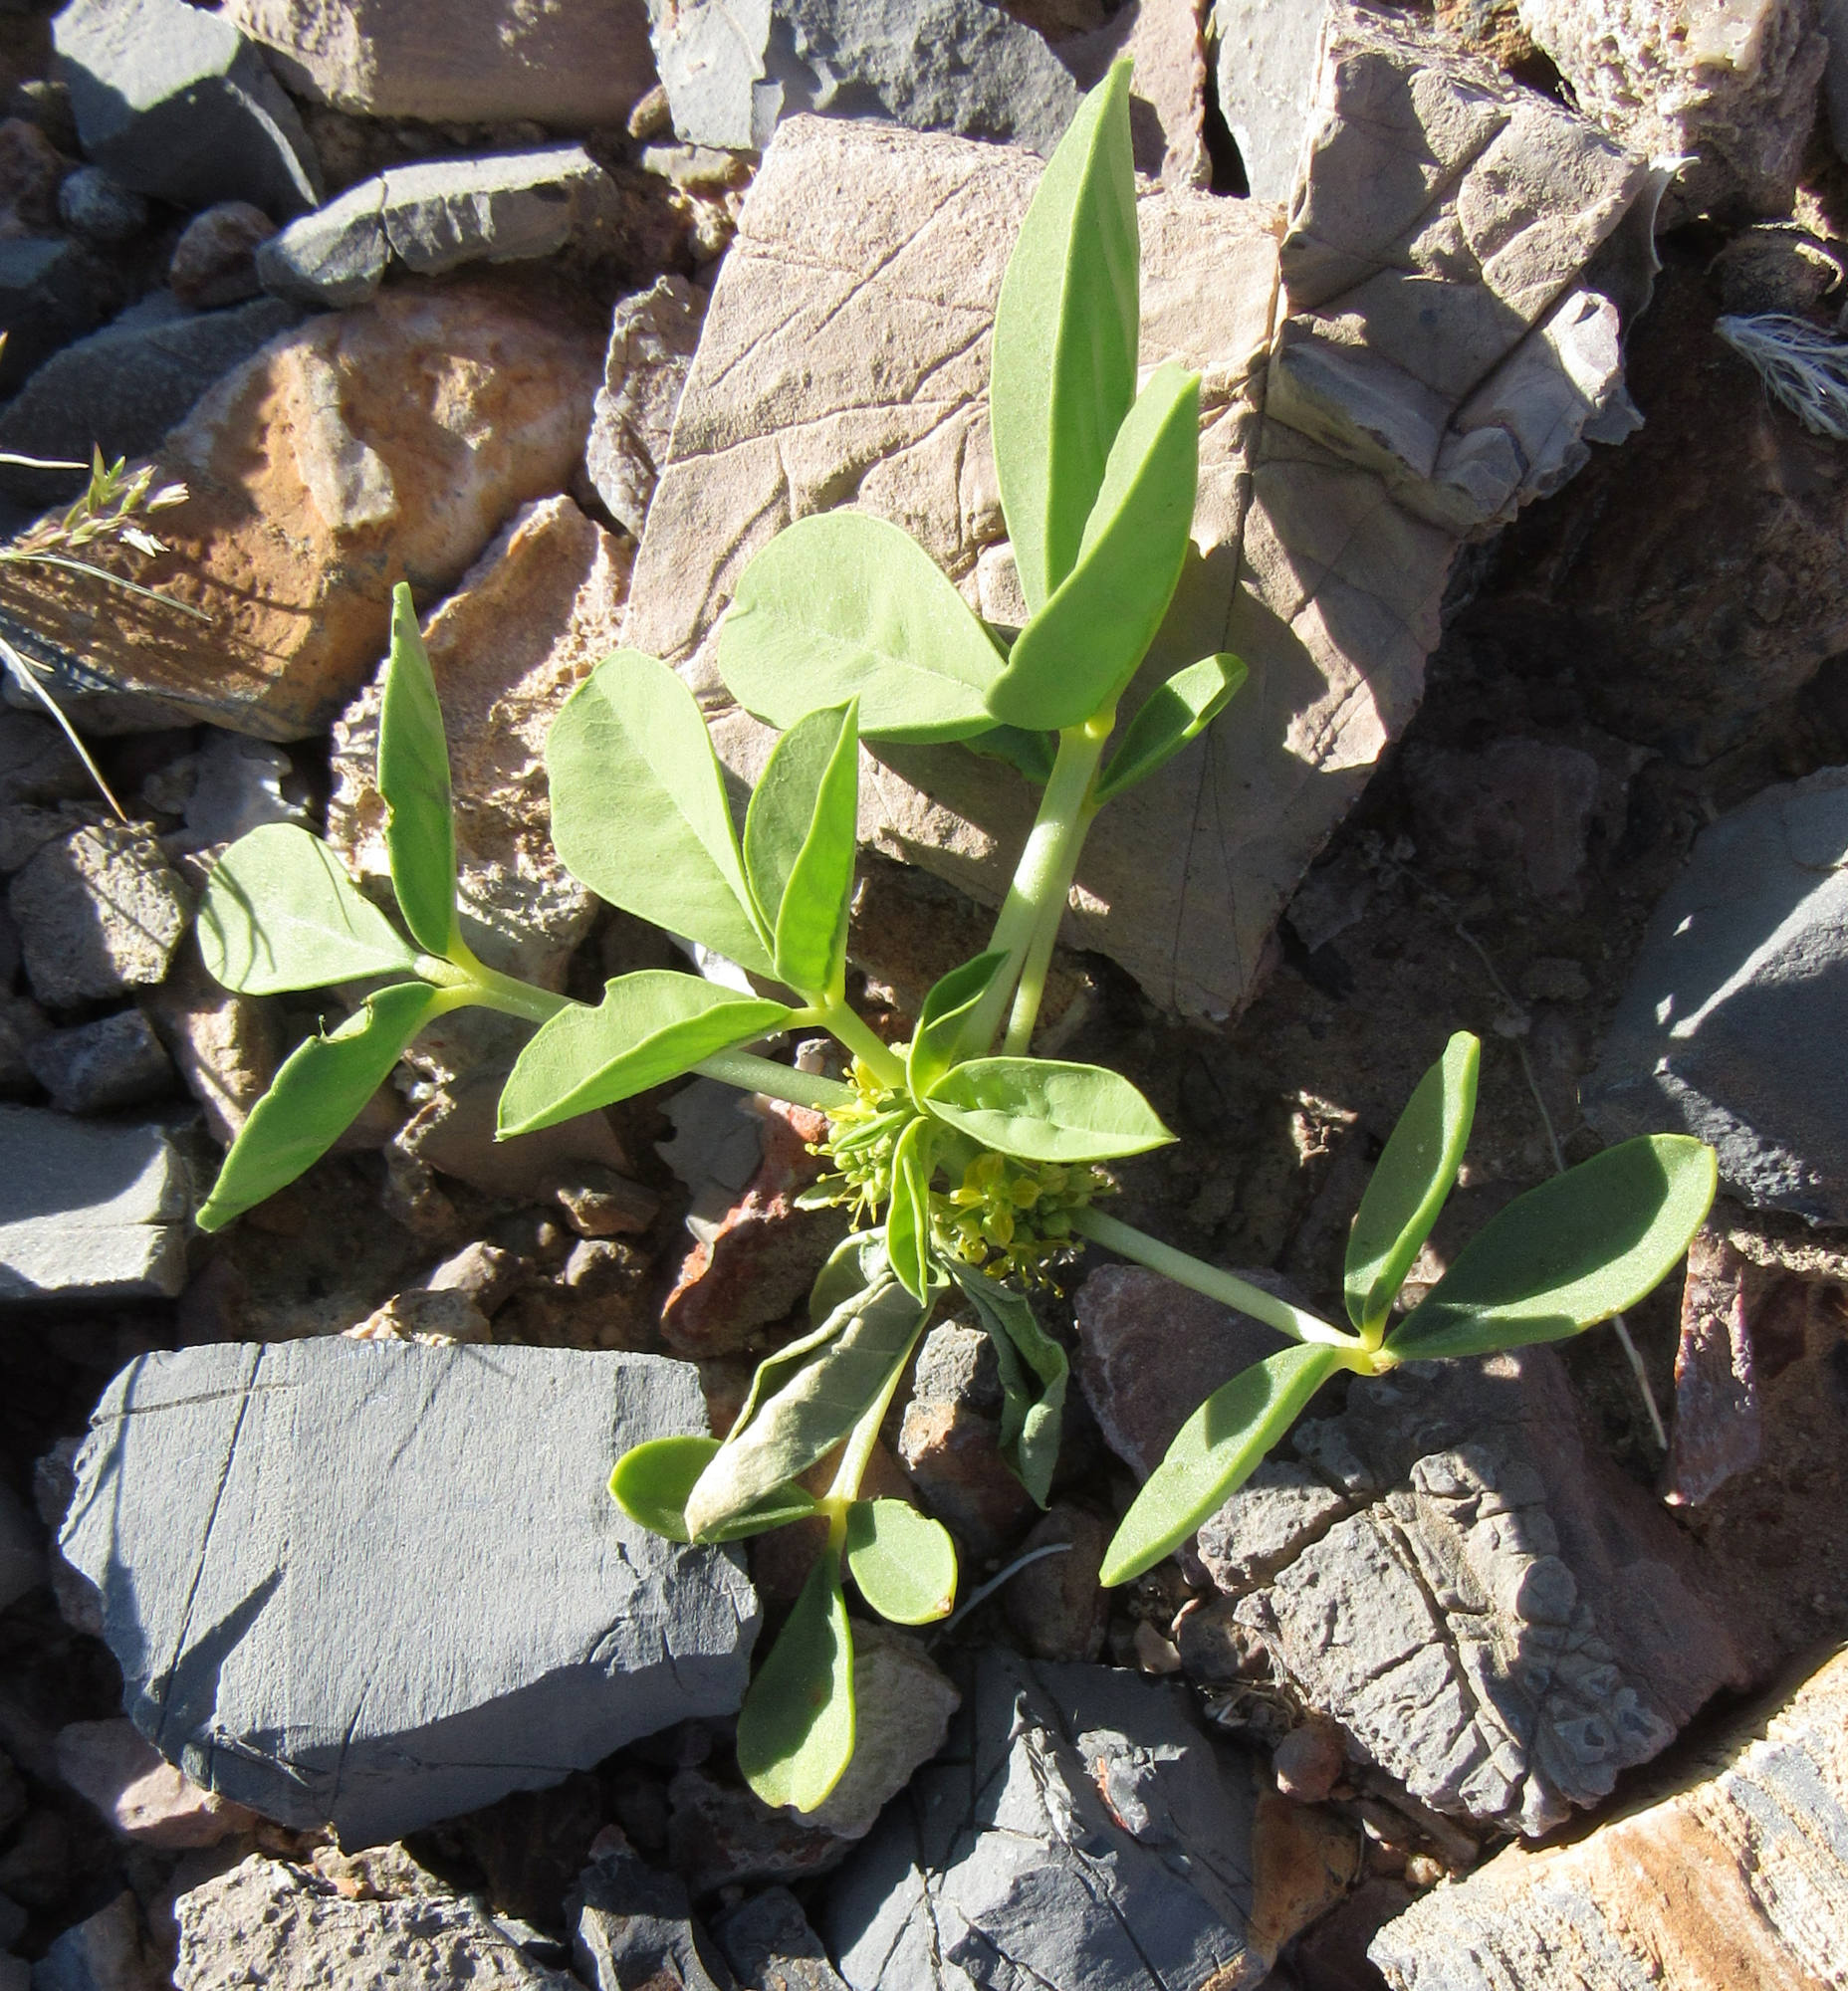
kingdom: Plantae
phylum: Tracheophyta
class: Magnoliopsida
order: Brassicales
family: Cleomaceae
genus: Cleomella
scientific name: Cleomella oxystyloides
